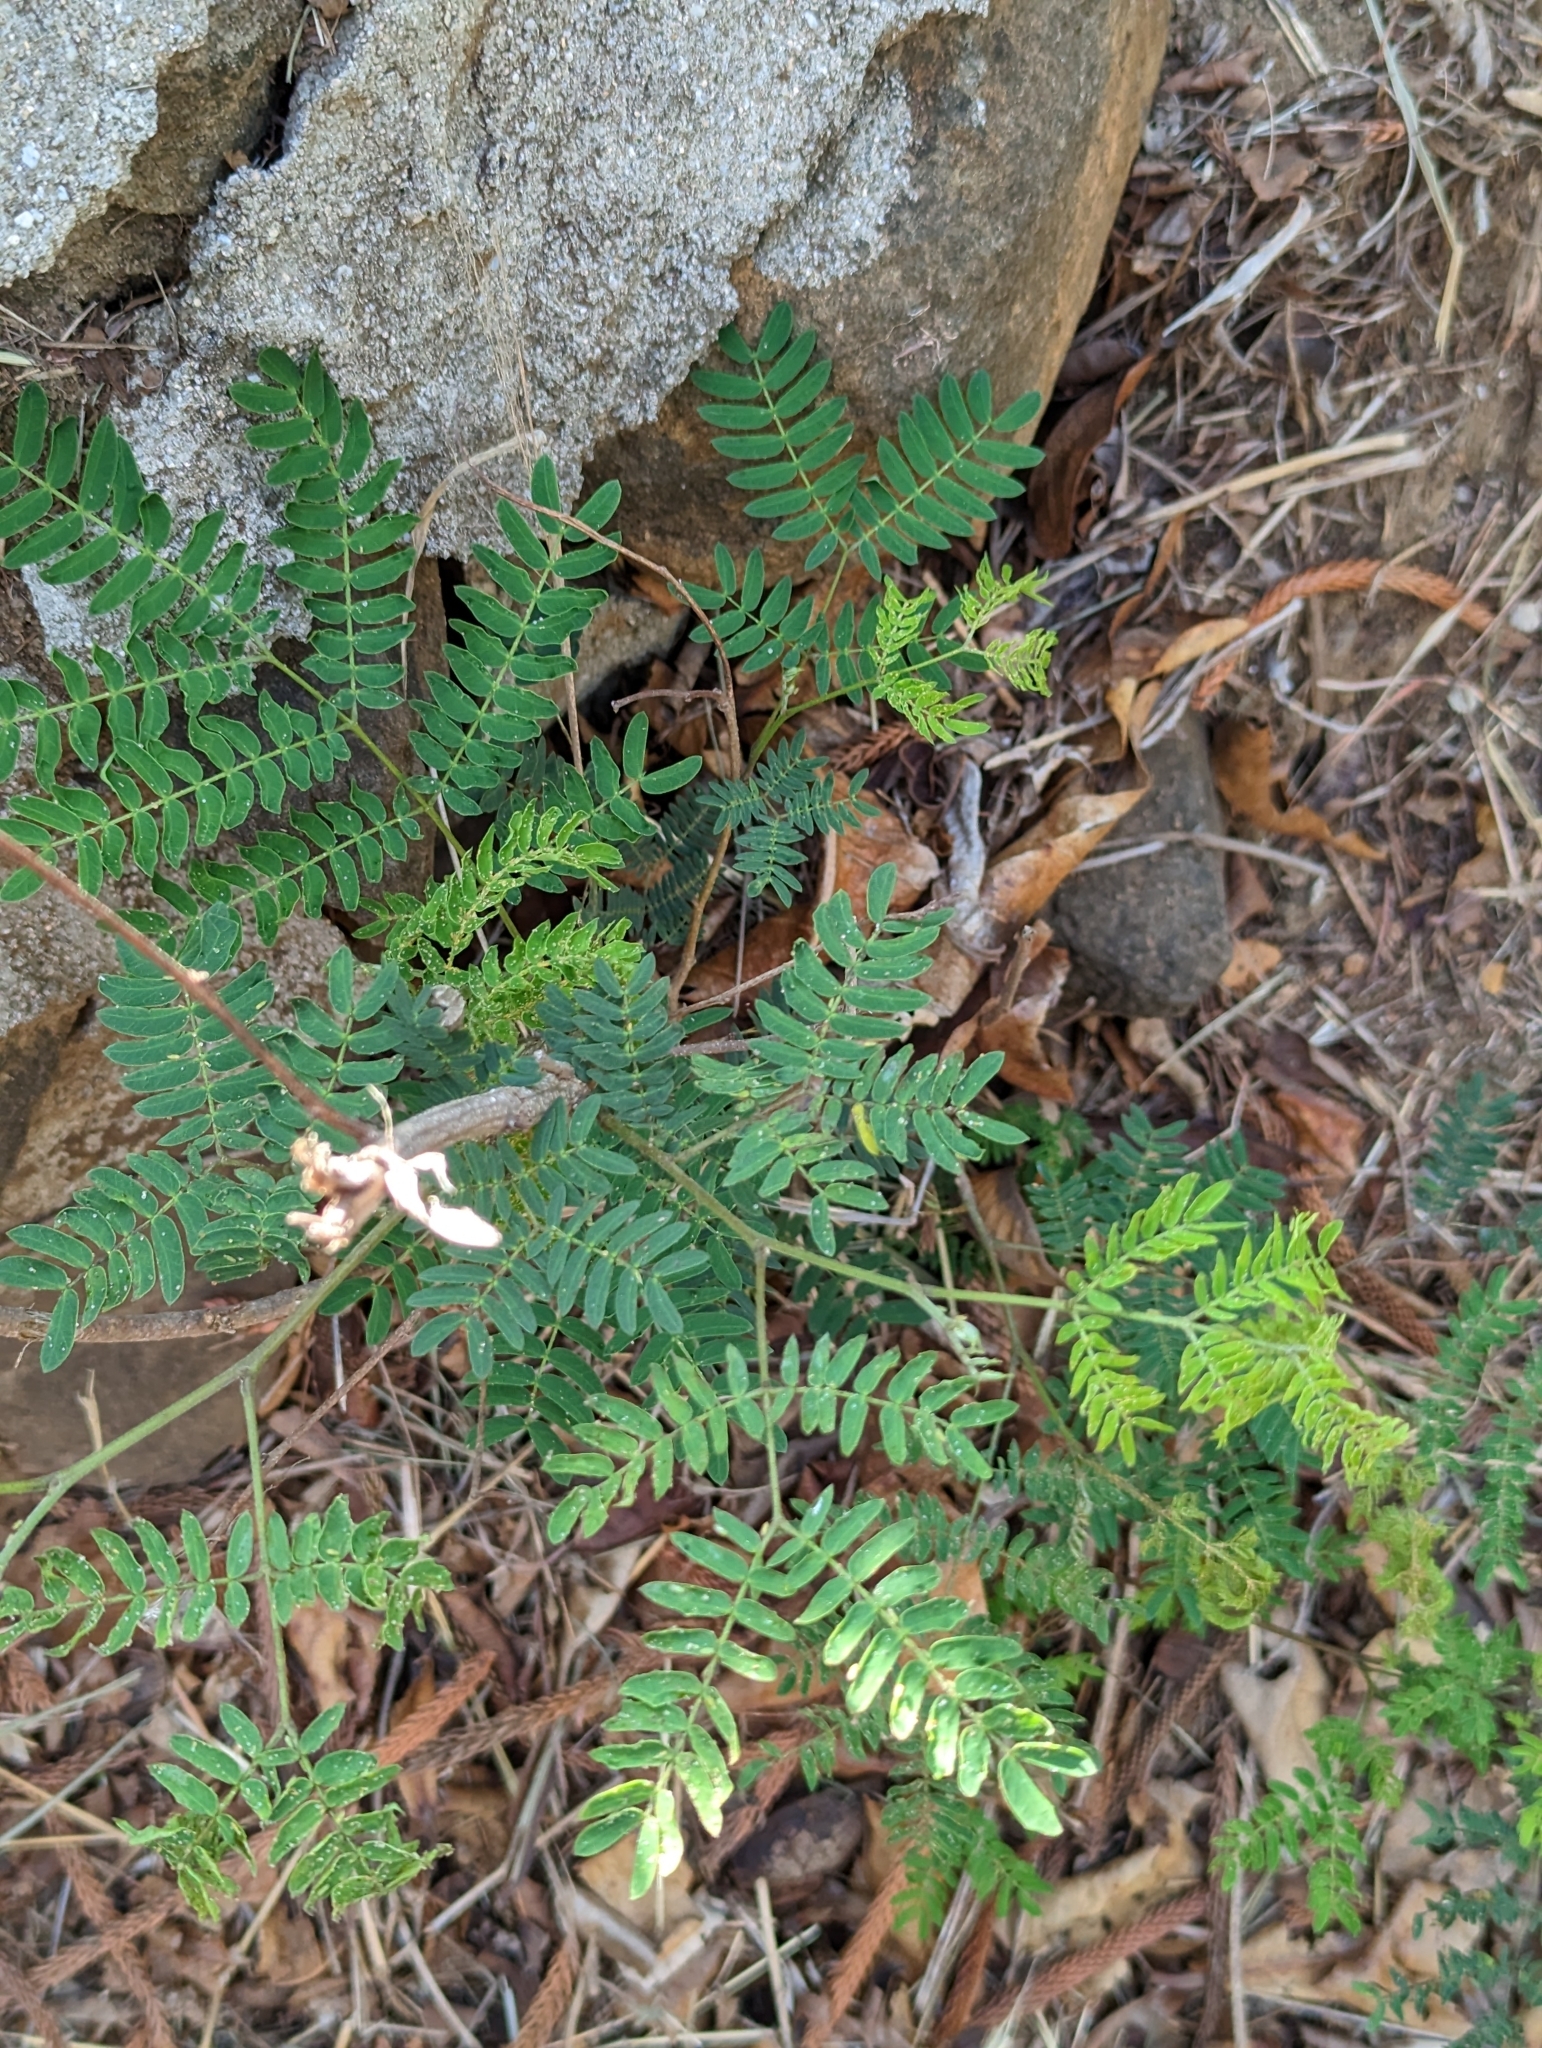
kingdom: Plantae
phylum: Tracheophyta
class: Magnoliopsida
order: Fabales
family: Fabaceae
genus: Leucaena
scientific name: Leucaena leucocephala
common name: White leadtree
